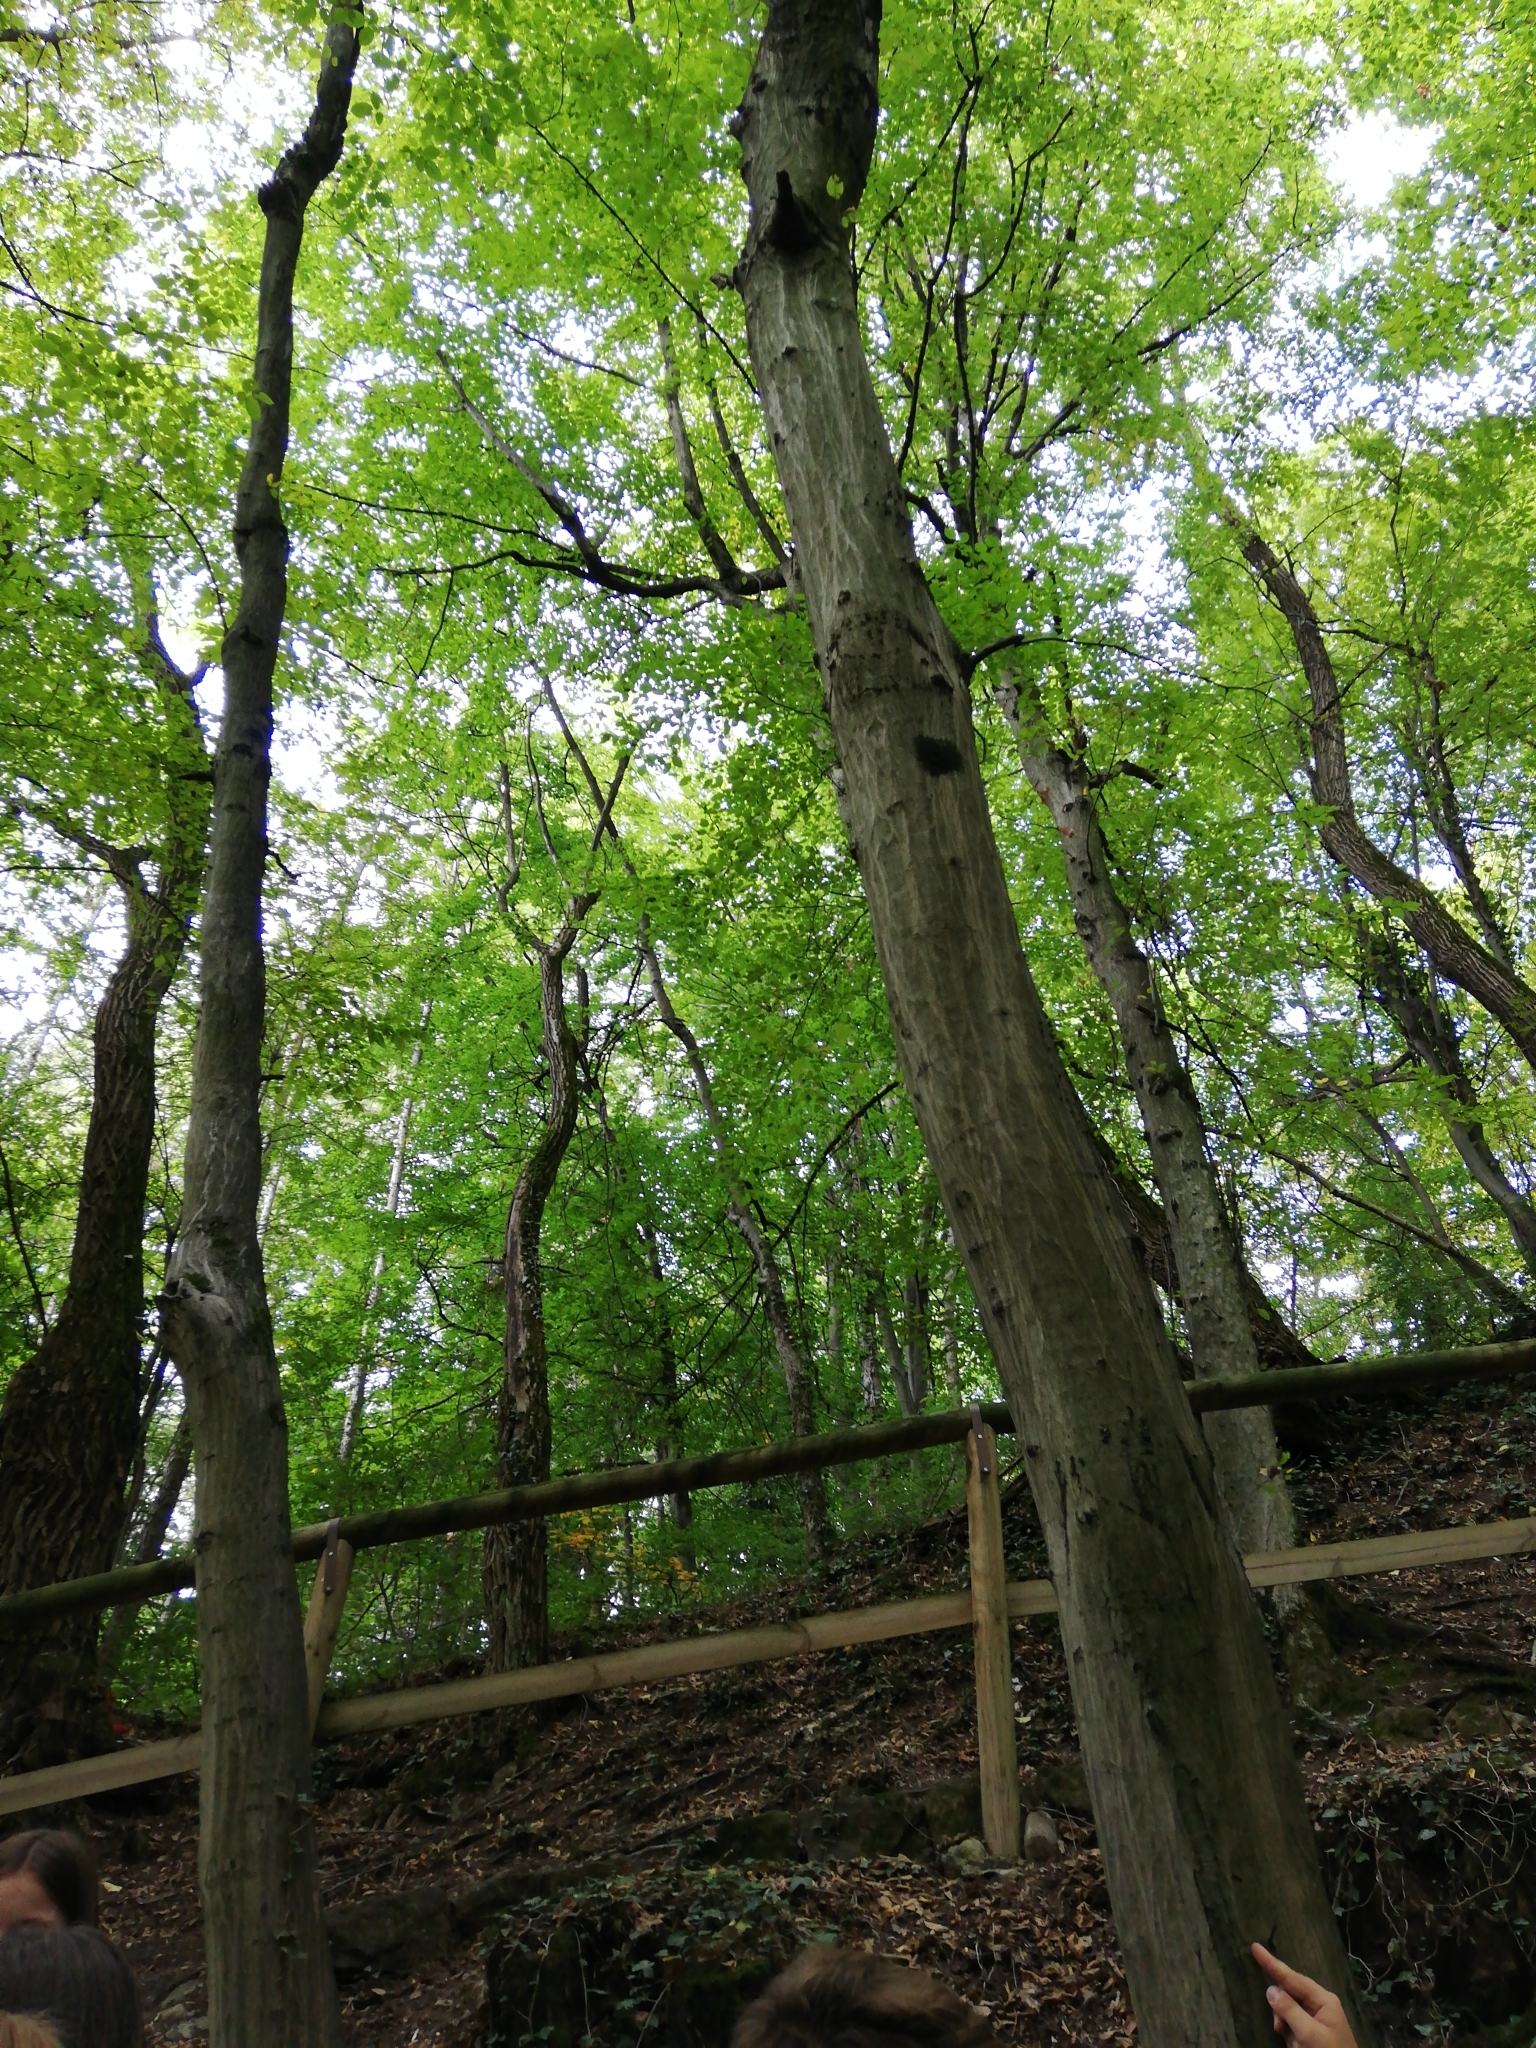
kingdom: Plantae
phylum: Tracheophyta
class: Magnoliopsida
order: Fagales
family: Betulaceae
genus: Carpinus
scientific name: Carpinus betulus
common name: Hornbeam
